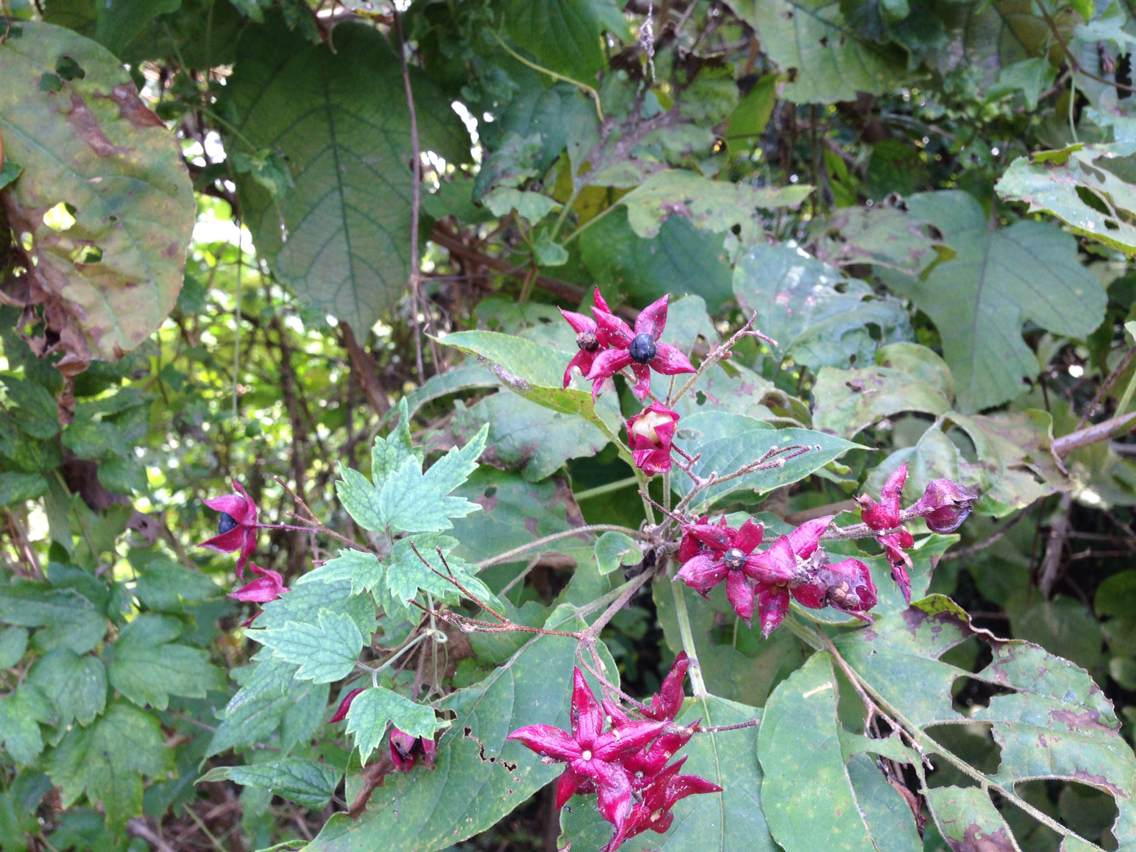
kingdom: Plantae
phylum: Tracheophyta
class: Magnoliopsida
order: Lamiales
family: Lamiaceae
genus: Clerodendrum
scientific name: Clerodendrum trichotomum
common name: Harlequin glorybower
